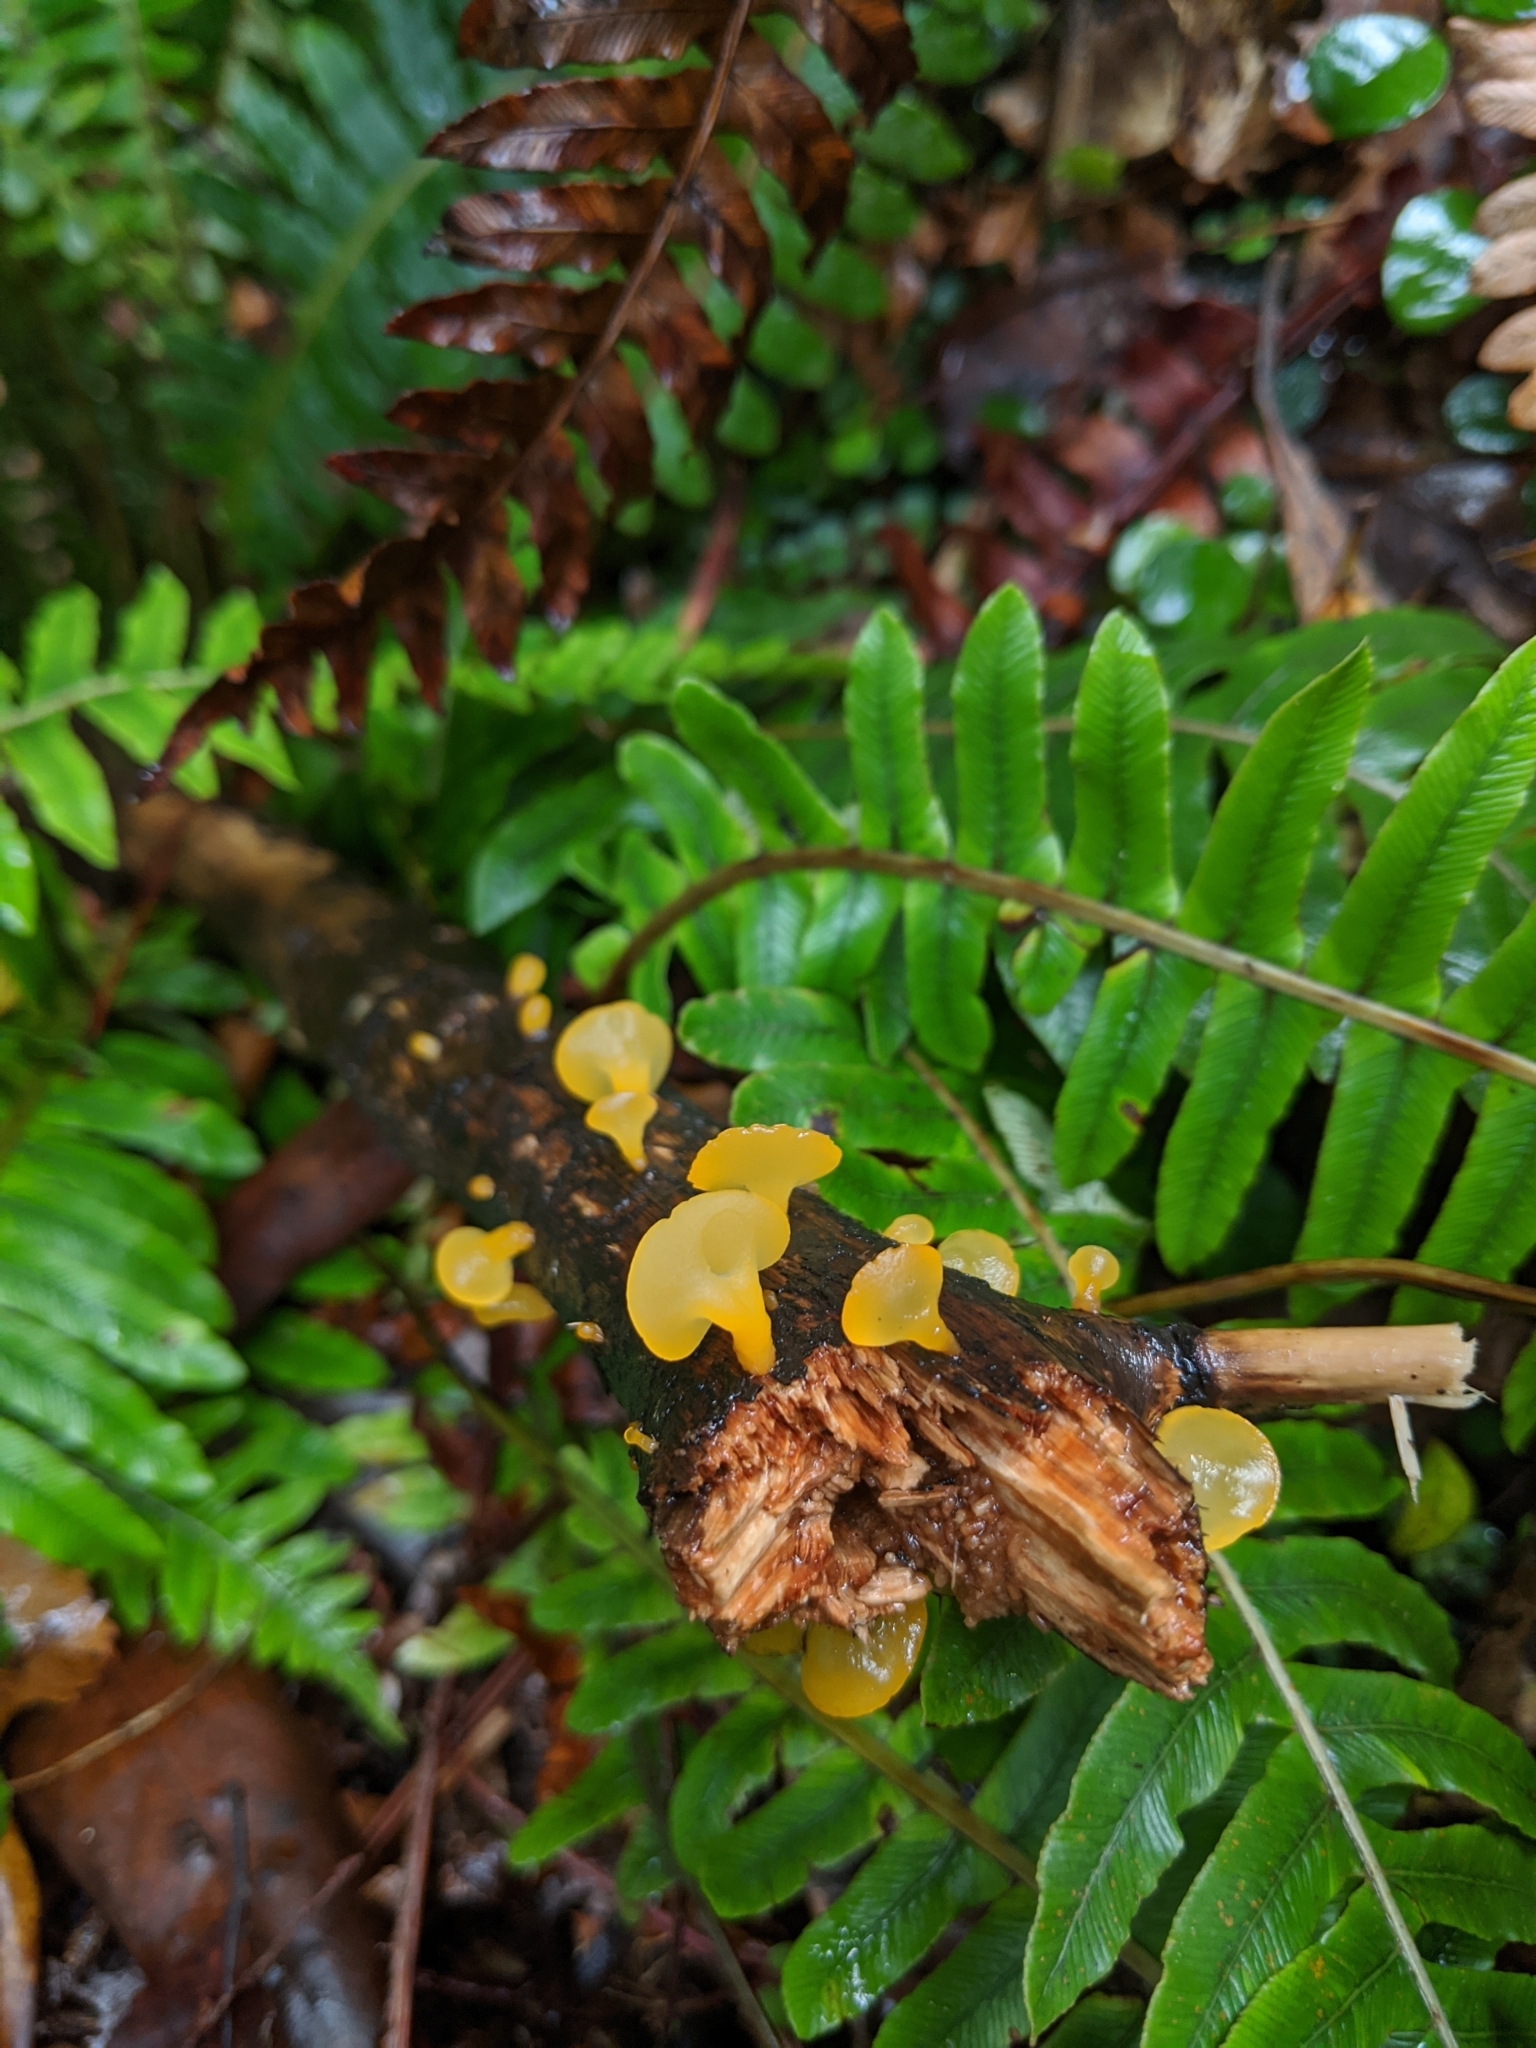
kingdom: Fungi
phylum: Basidiomycota
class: Dacrymycetes
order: Dacrymycetales
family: Dacrymycetaceae
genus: Heterotextus
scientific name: Heterotextus miltinus
